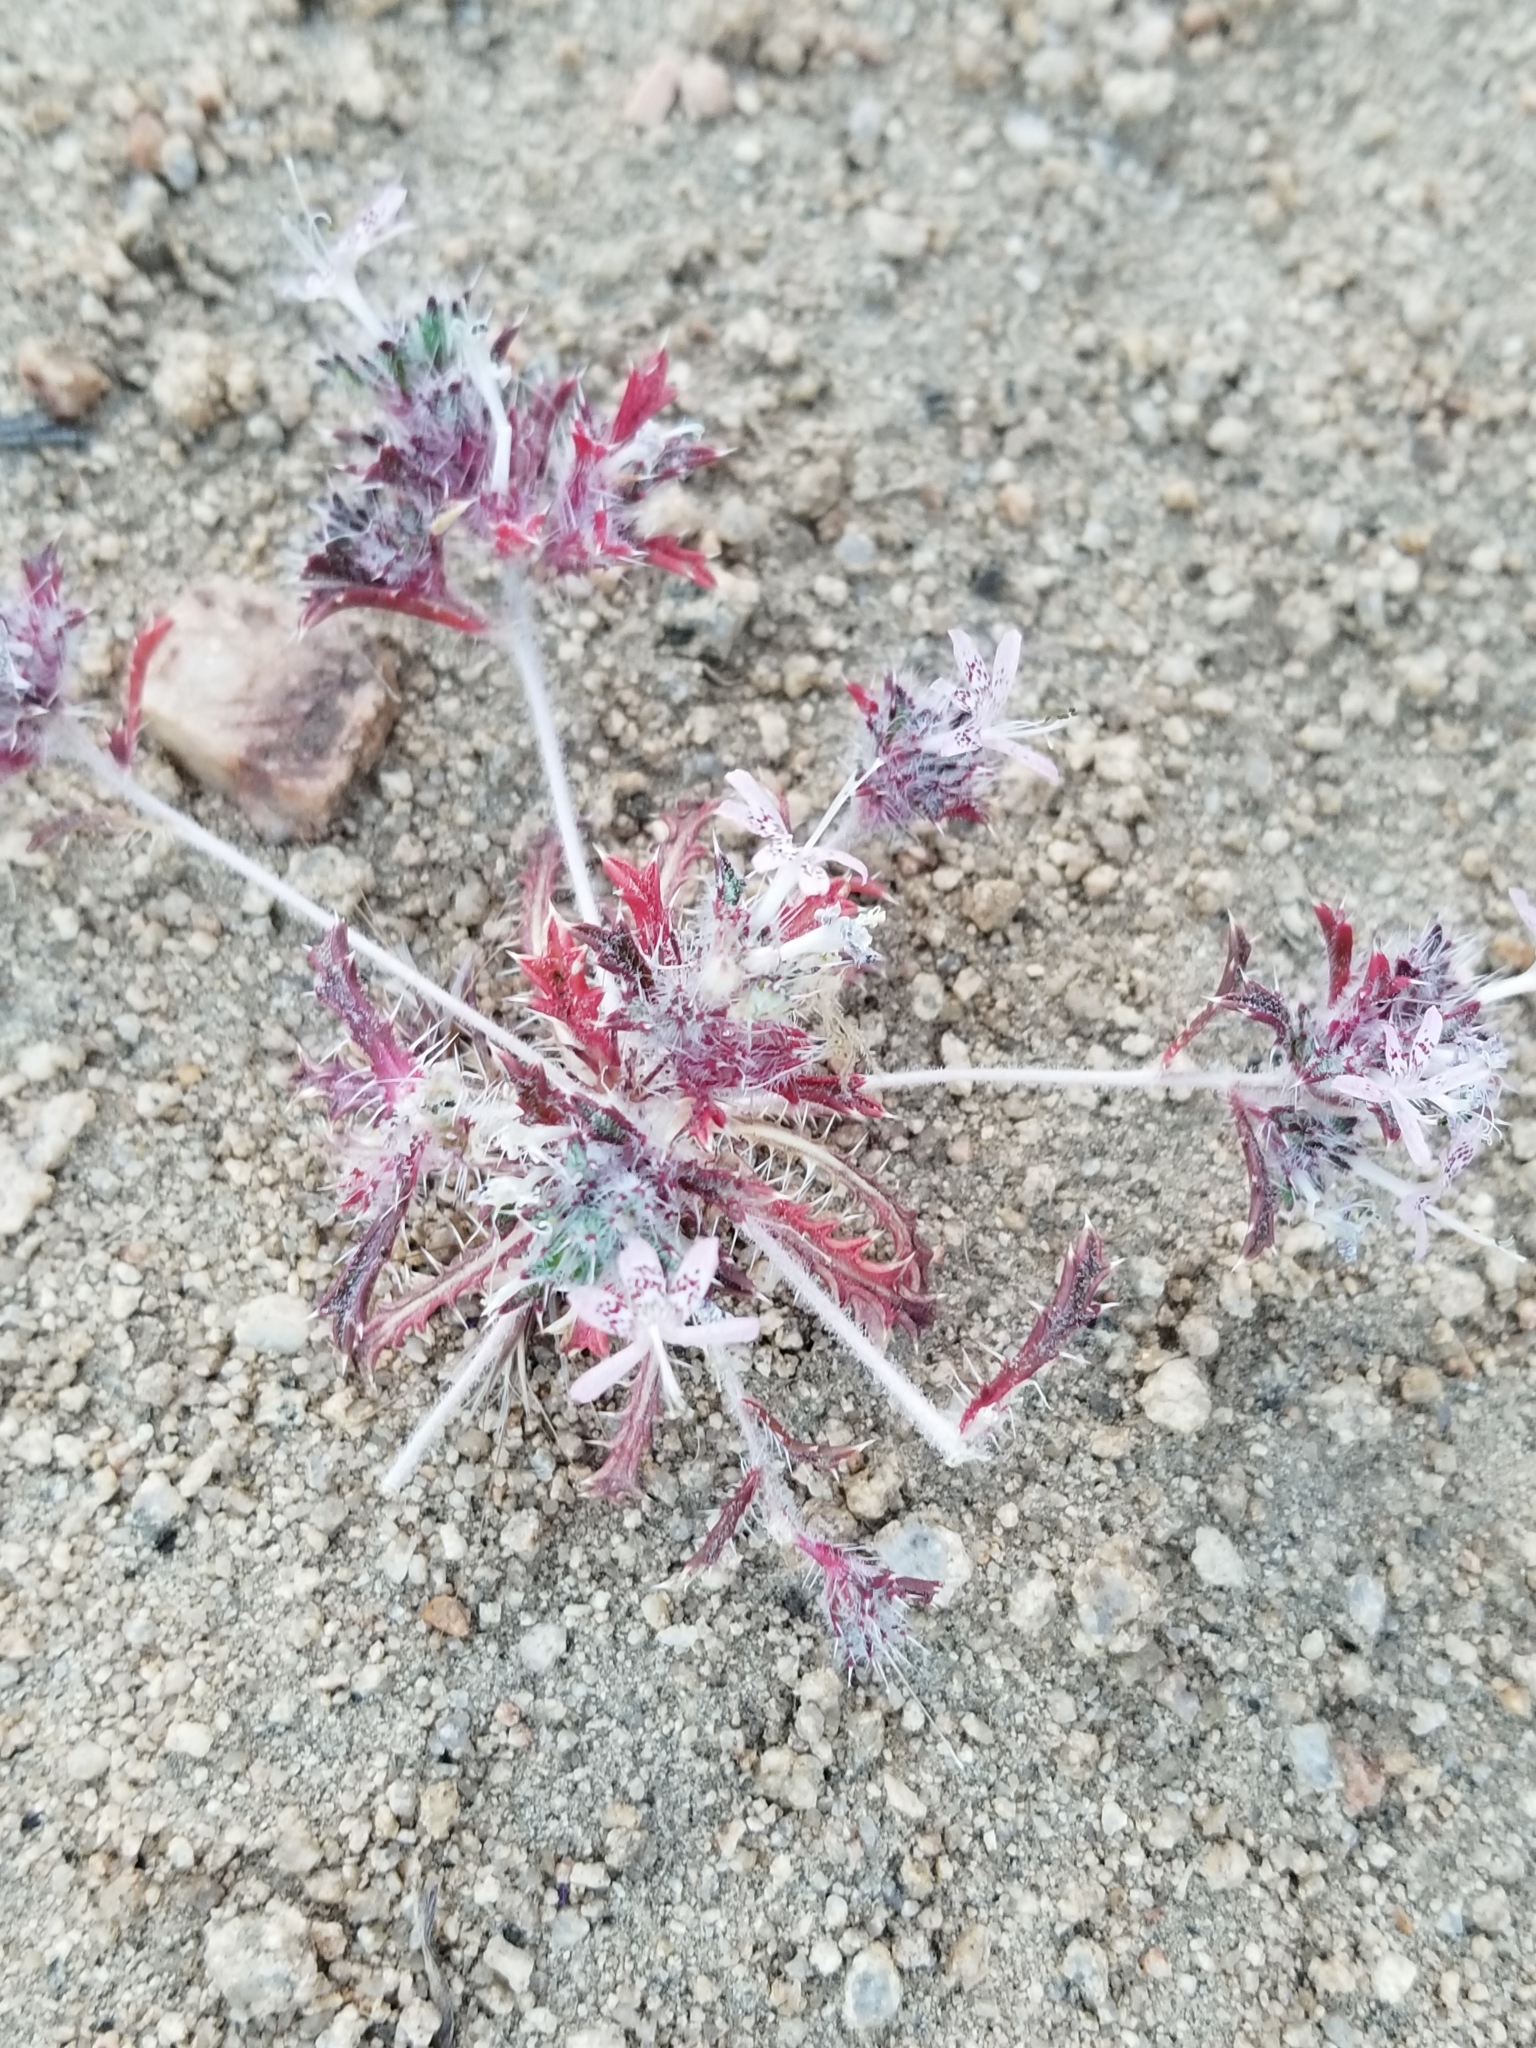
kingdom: Plantae
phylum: Tracheophyta
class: Magnoliopsida
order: Ericales
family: Polemoniaceae
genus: Loeseliastrum
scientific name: Loeseliastrum matthewsii
